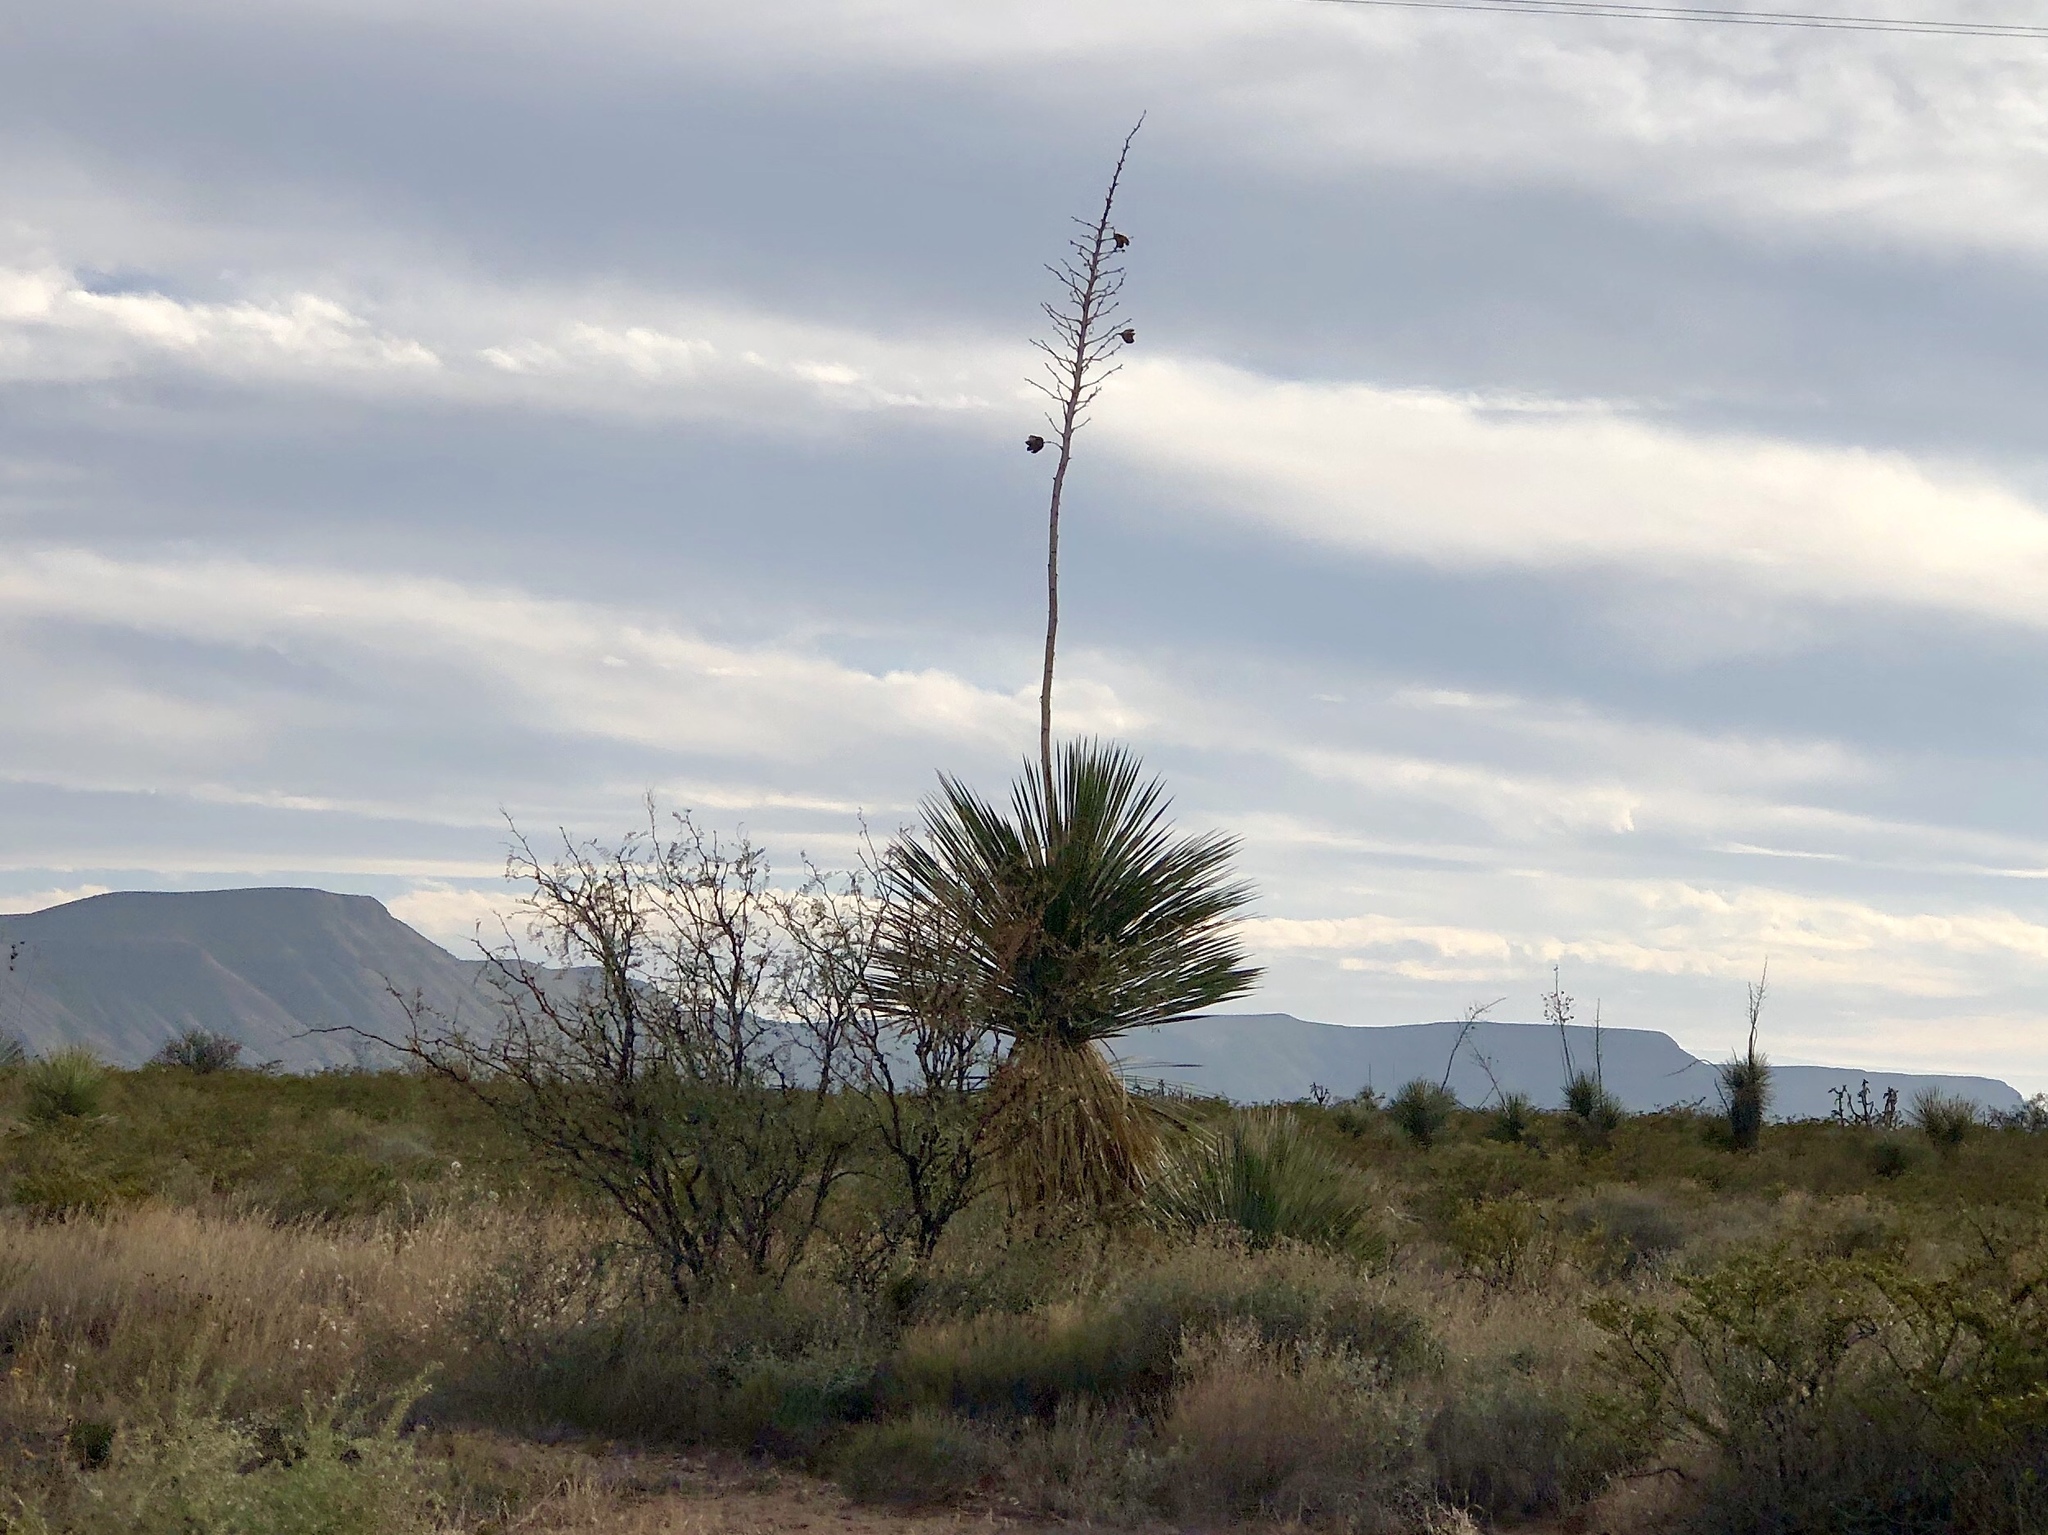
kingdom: Plantae
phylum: Tracheophyta
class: Liliopsida
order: Asparagales
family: Asparagaceae
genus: Yucca
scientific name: Yucca elata
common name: Palmella
